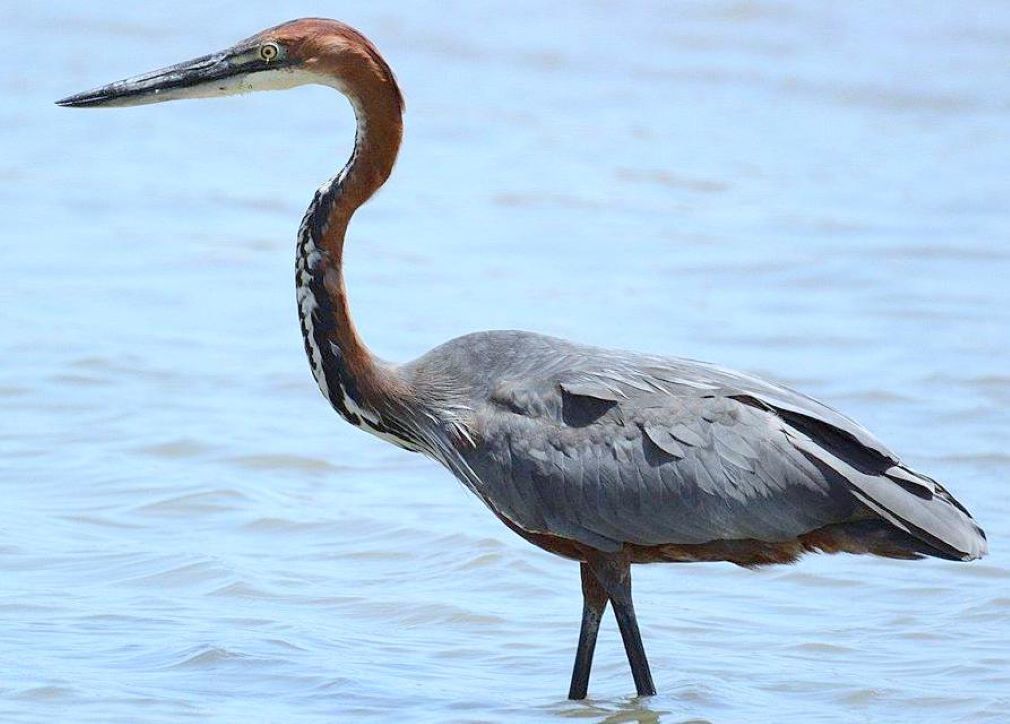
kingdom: Animalia
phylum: Chordata
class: Aves
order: Pelecaniformes
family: Ardeidae
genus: Ardea
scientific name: Ardea goliath
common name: Goliath heron
